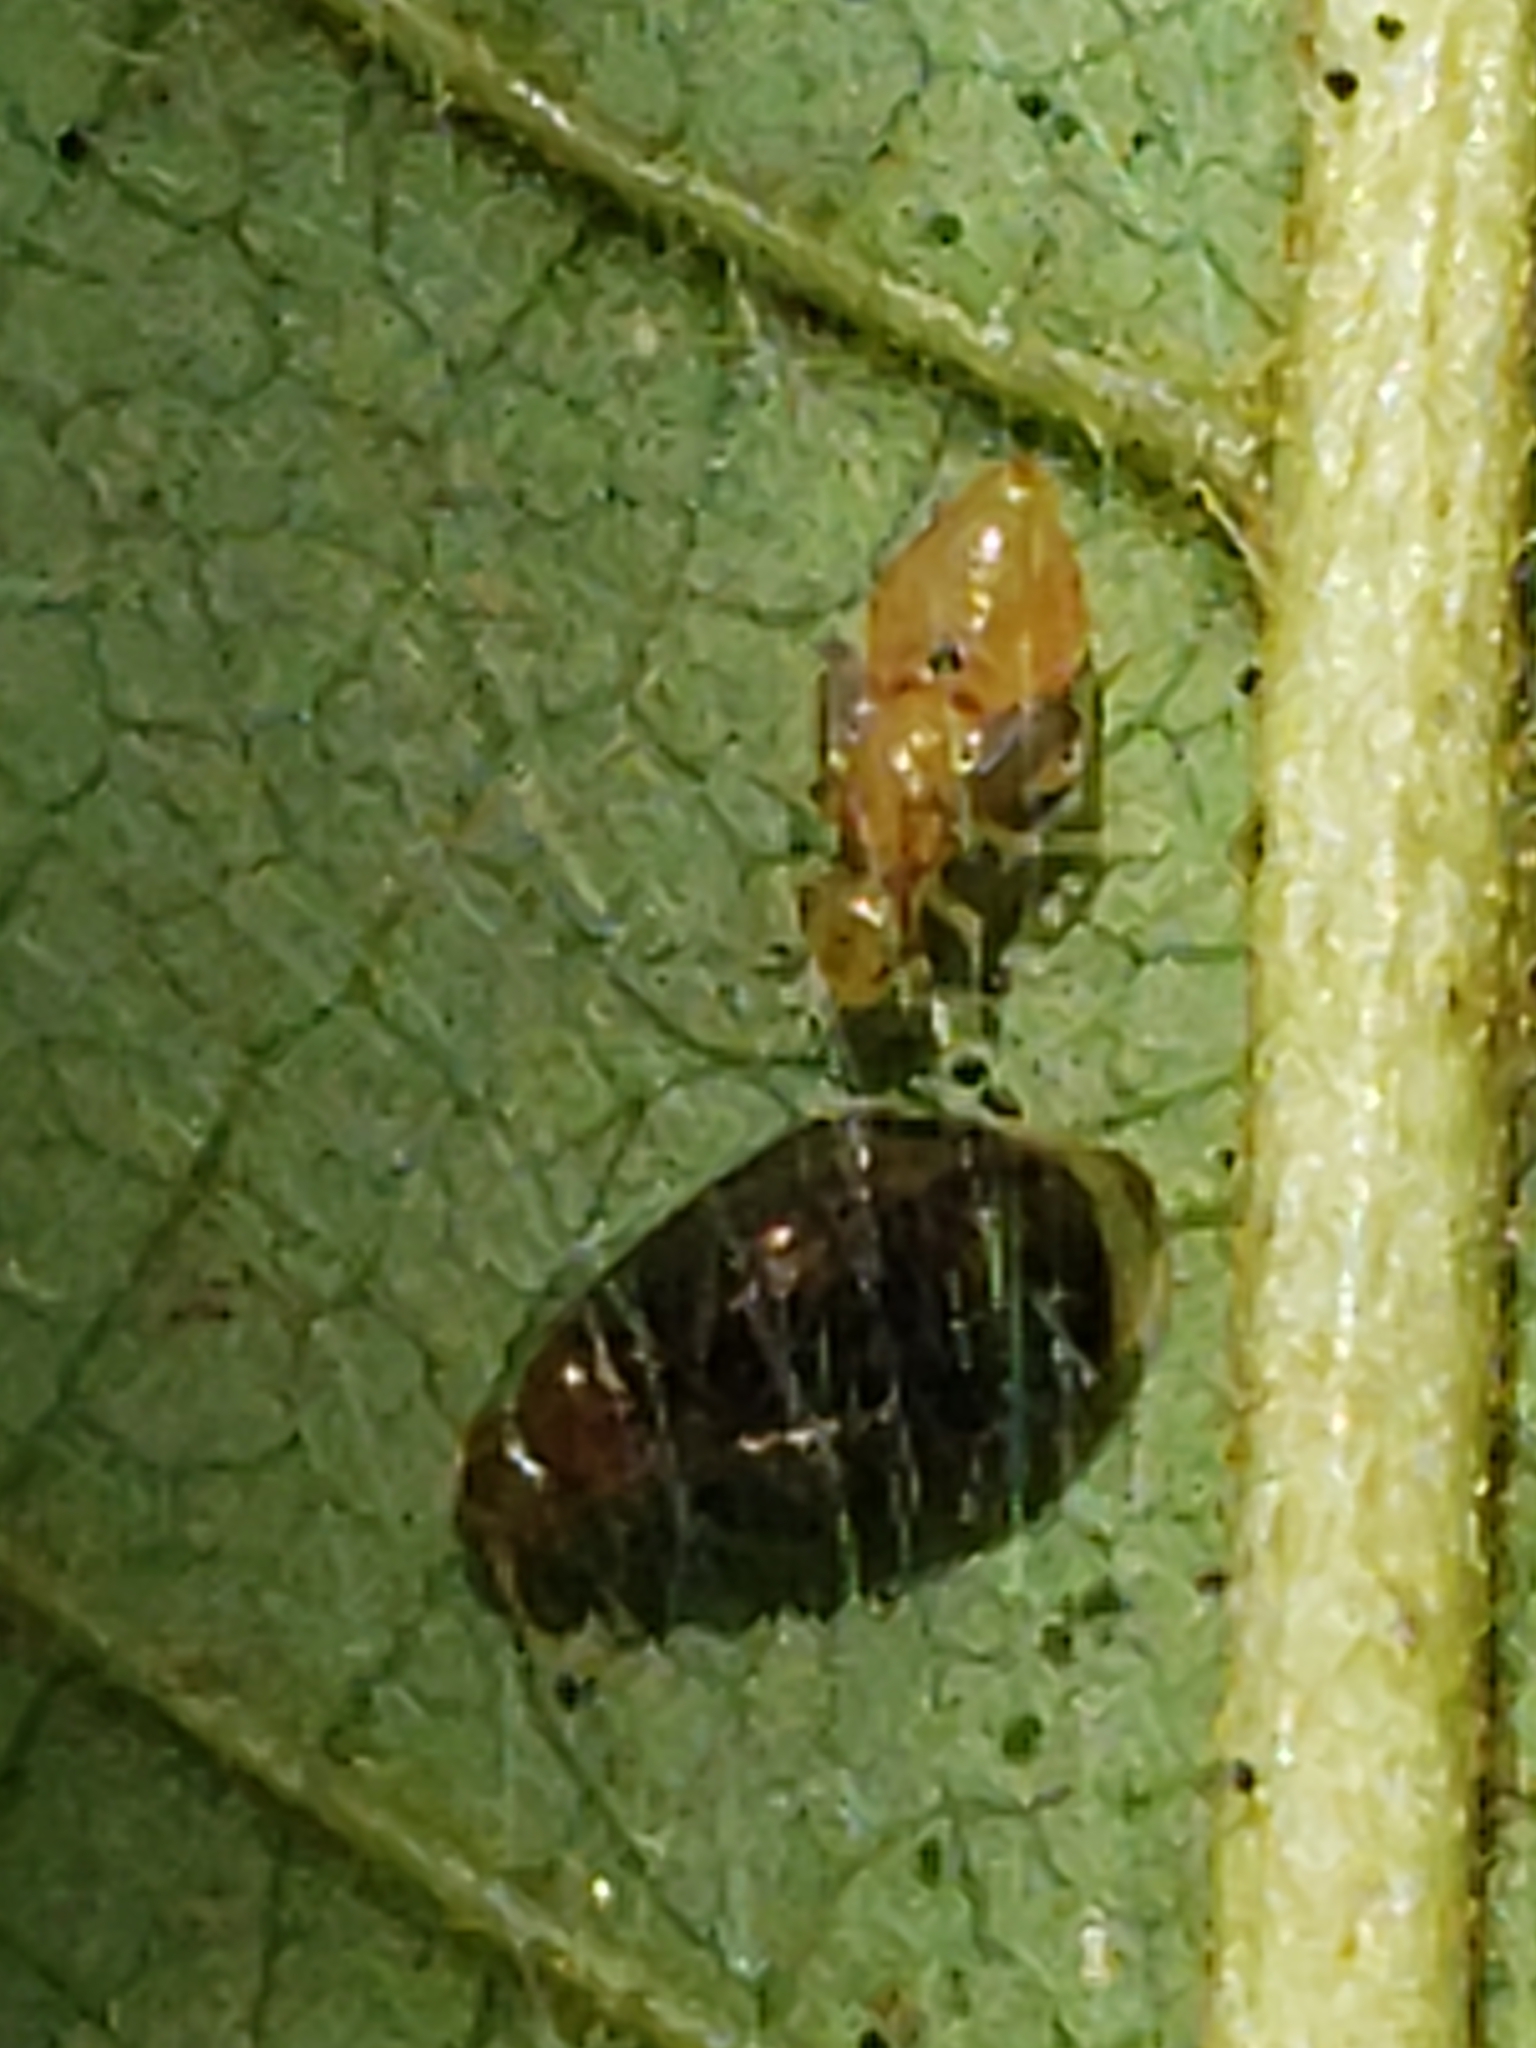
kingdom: Animalia
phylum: Arthropoda
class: Insecta
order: Psocodea
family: Amphipsocidae
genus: Polypsocus
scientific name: Polypsocus corruptus
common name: Corrupt barklouse
